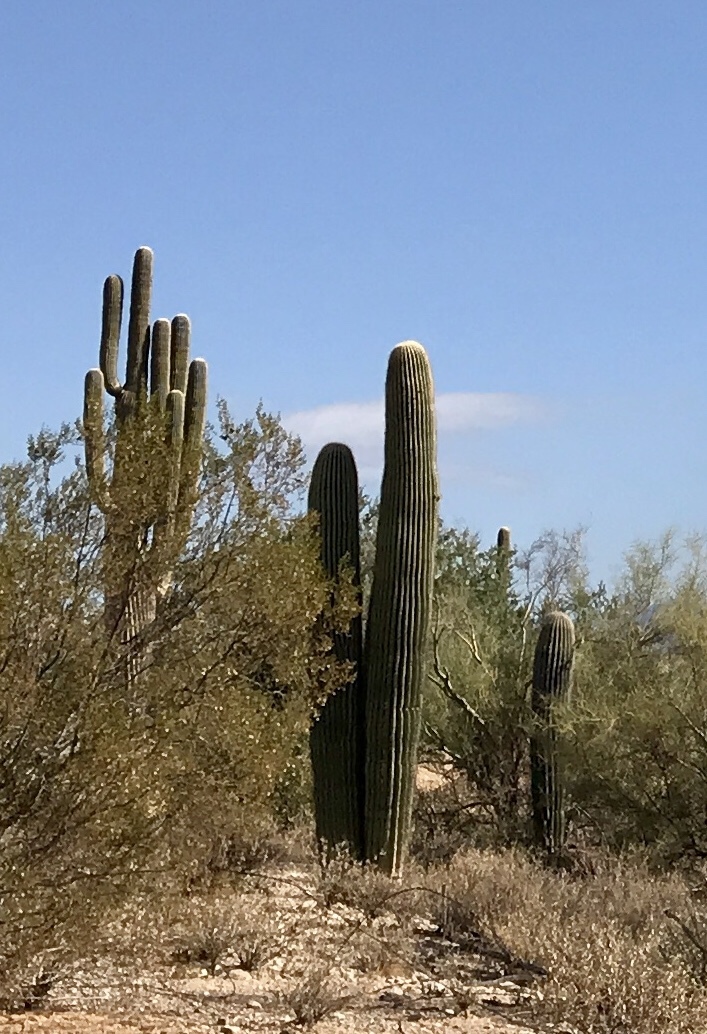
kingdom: Plantae
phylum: Tracheophyta
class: Magnoliopsida
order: Caryophyllales
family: Cactaceae
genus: Carnegiea
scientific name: Carnegiea gigantea
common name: Saguaro
